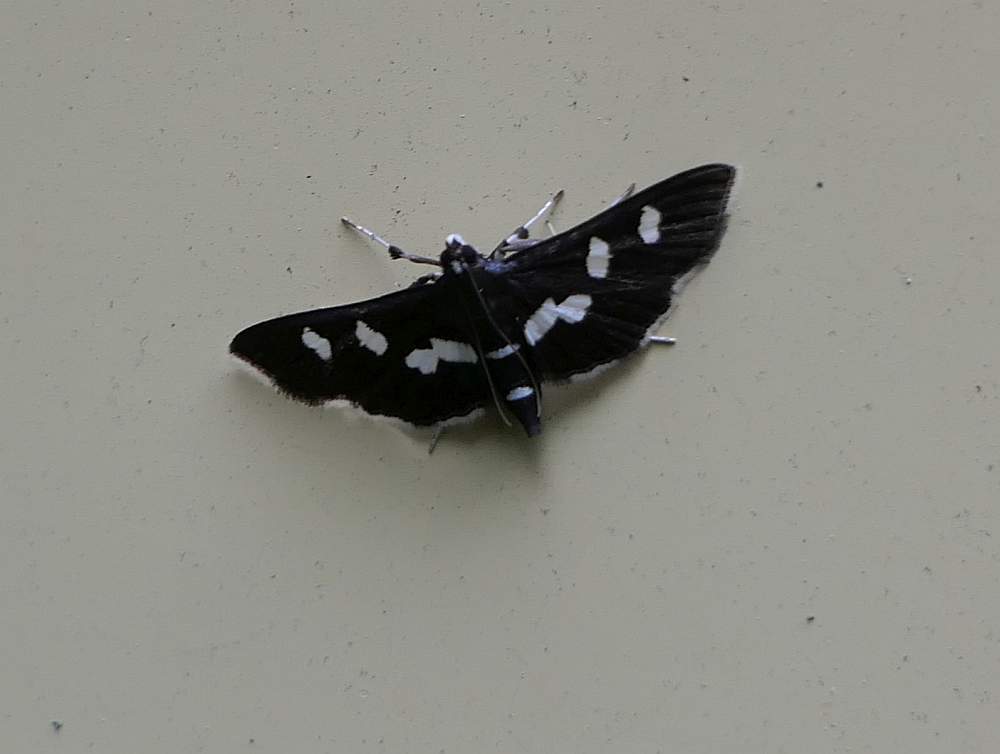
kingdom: Animalia
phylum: Arthropoda
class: Insecta
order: Lepidoptera
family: Crambidae
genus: Desmia
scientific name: Desmia
